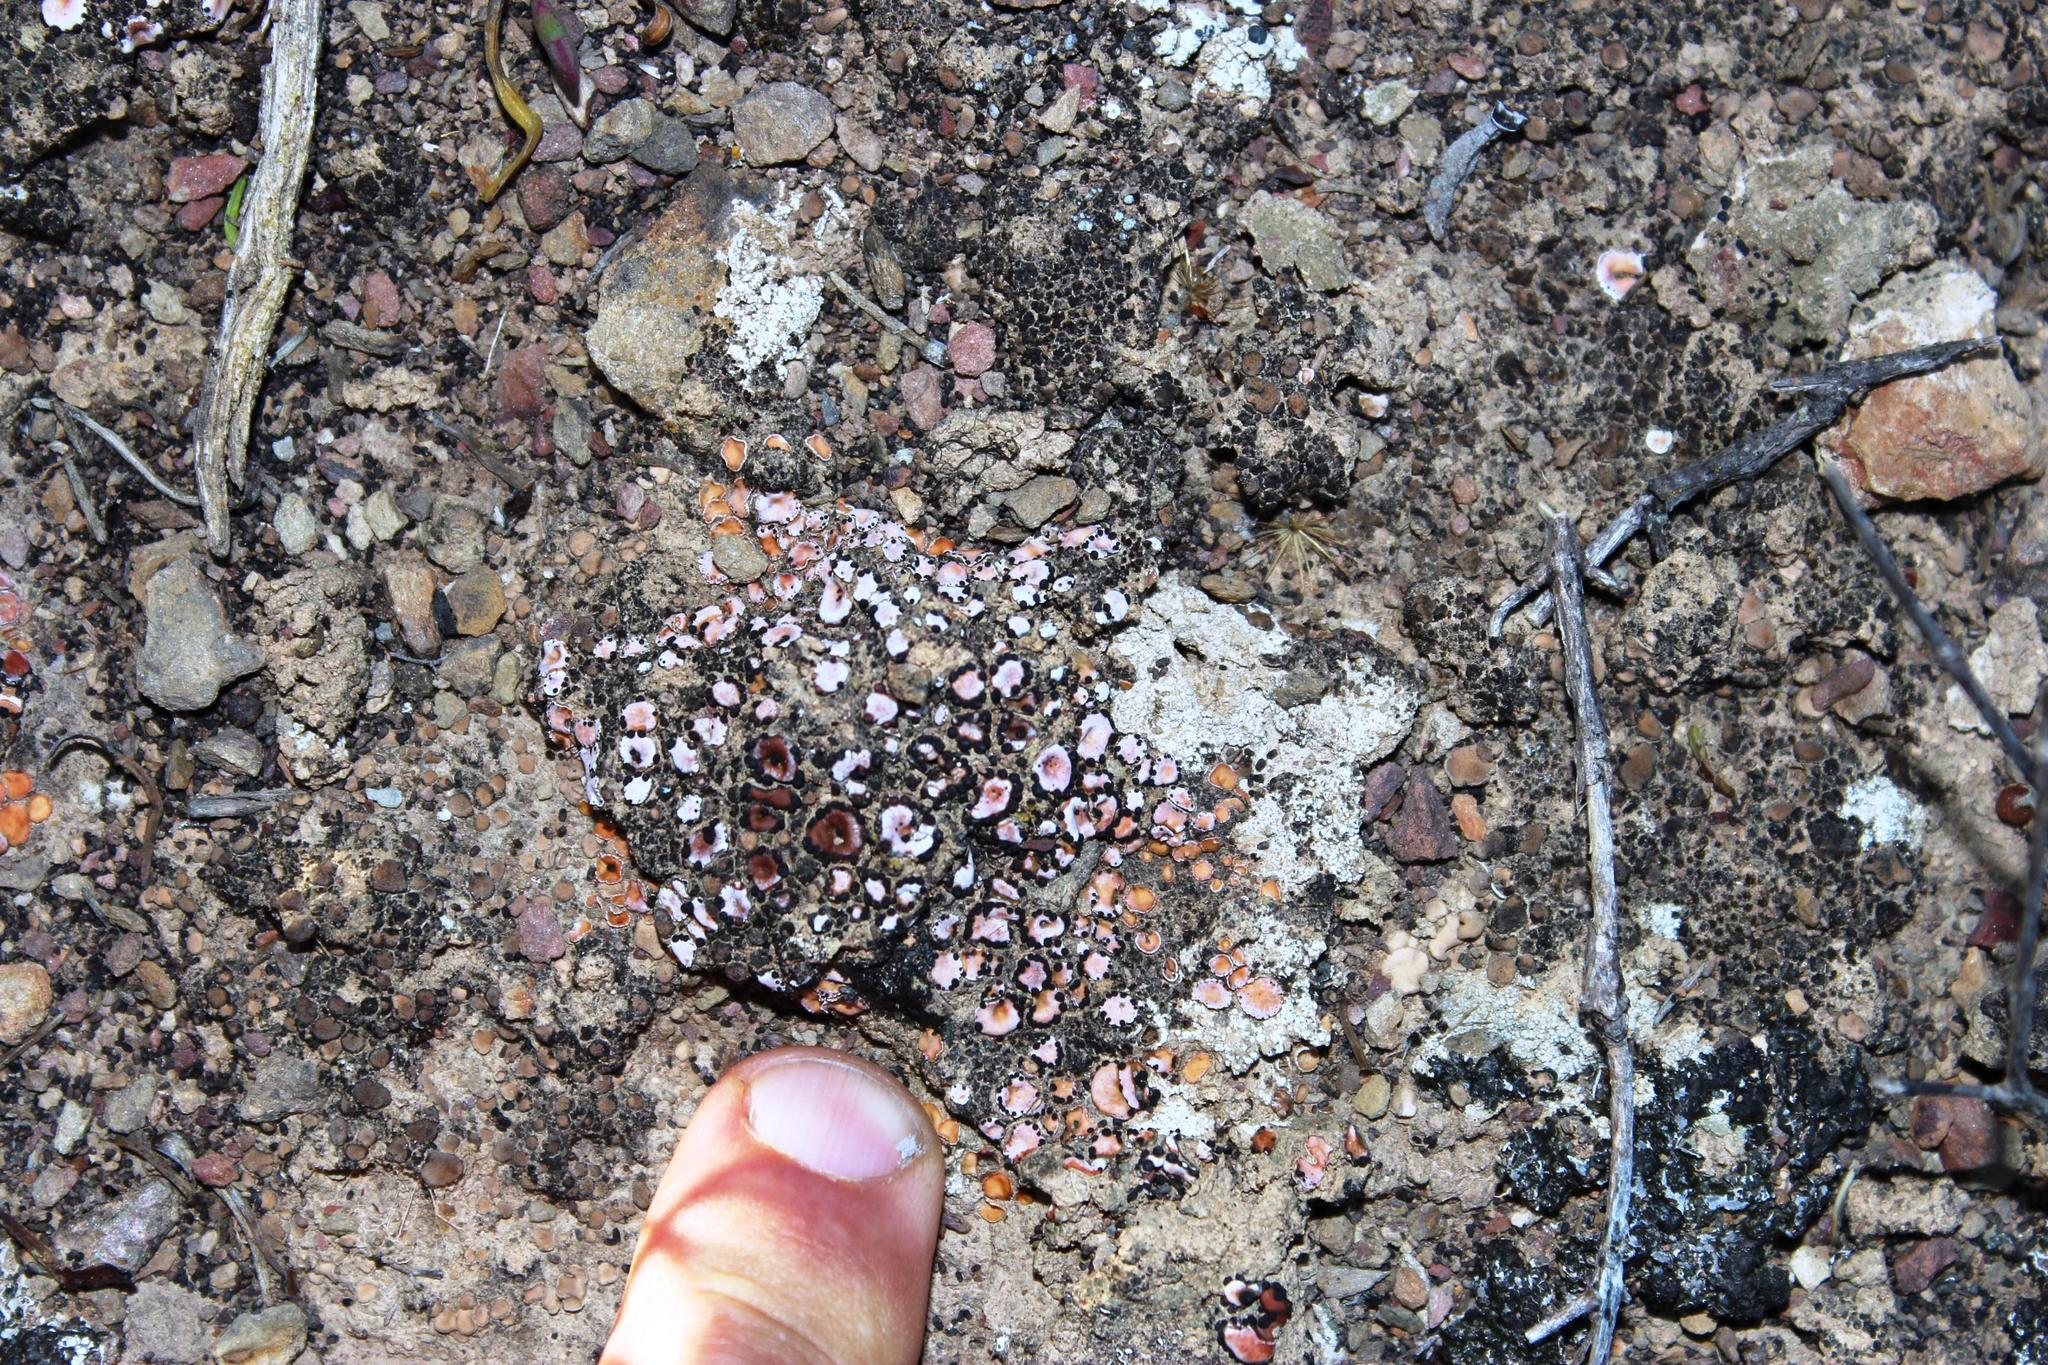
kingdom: Fungi
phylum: Ascomycota
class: Lecanoromycetes
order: Lecanorales
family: Psoraceae
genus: Psora
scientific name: Psora crenata
